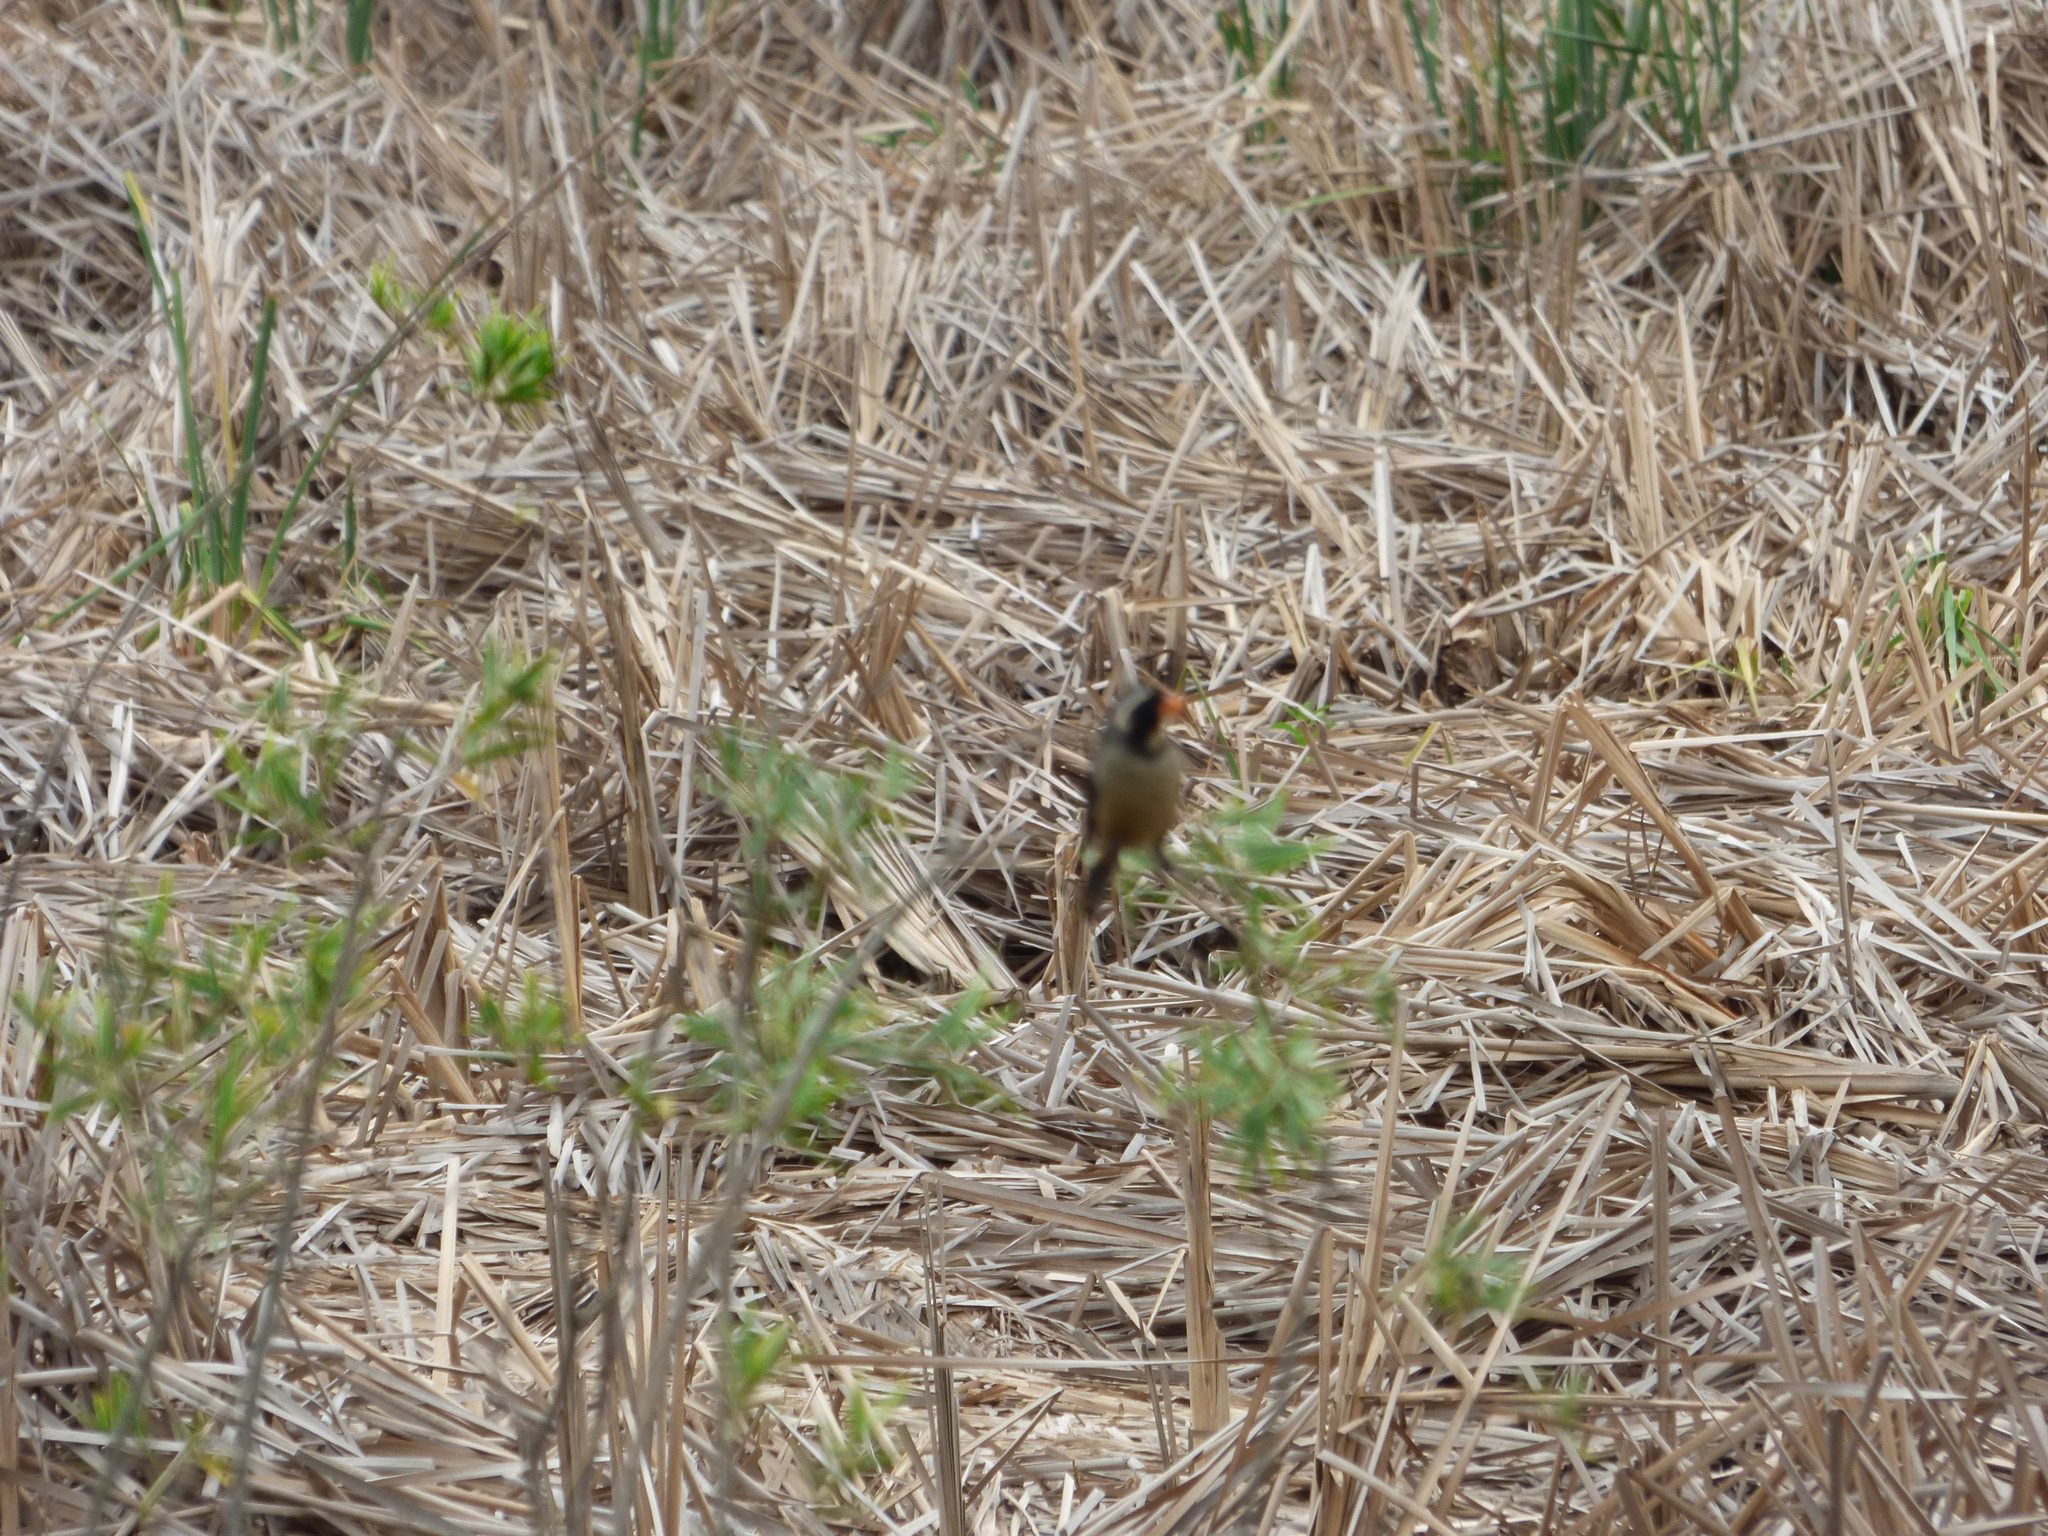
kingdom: Animalia
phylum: Chordata
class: Aves
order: Passeriformes
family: Thraupidae
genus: Saltator
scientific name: Saltator aurantiirostris
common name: Golden-billed saltator
